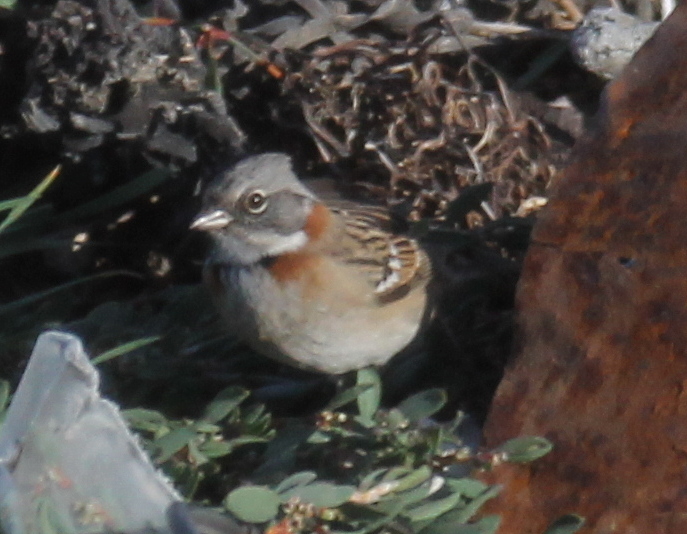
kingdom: Animalia
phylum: Chordata
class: Aves
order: Passeriformes
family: Passerellidae
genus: Zonotrichia
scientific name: Zonotrichia capensis
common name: Rufous-collared sparrow
